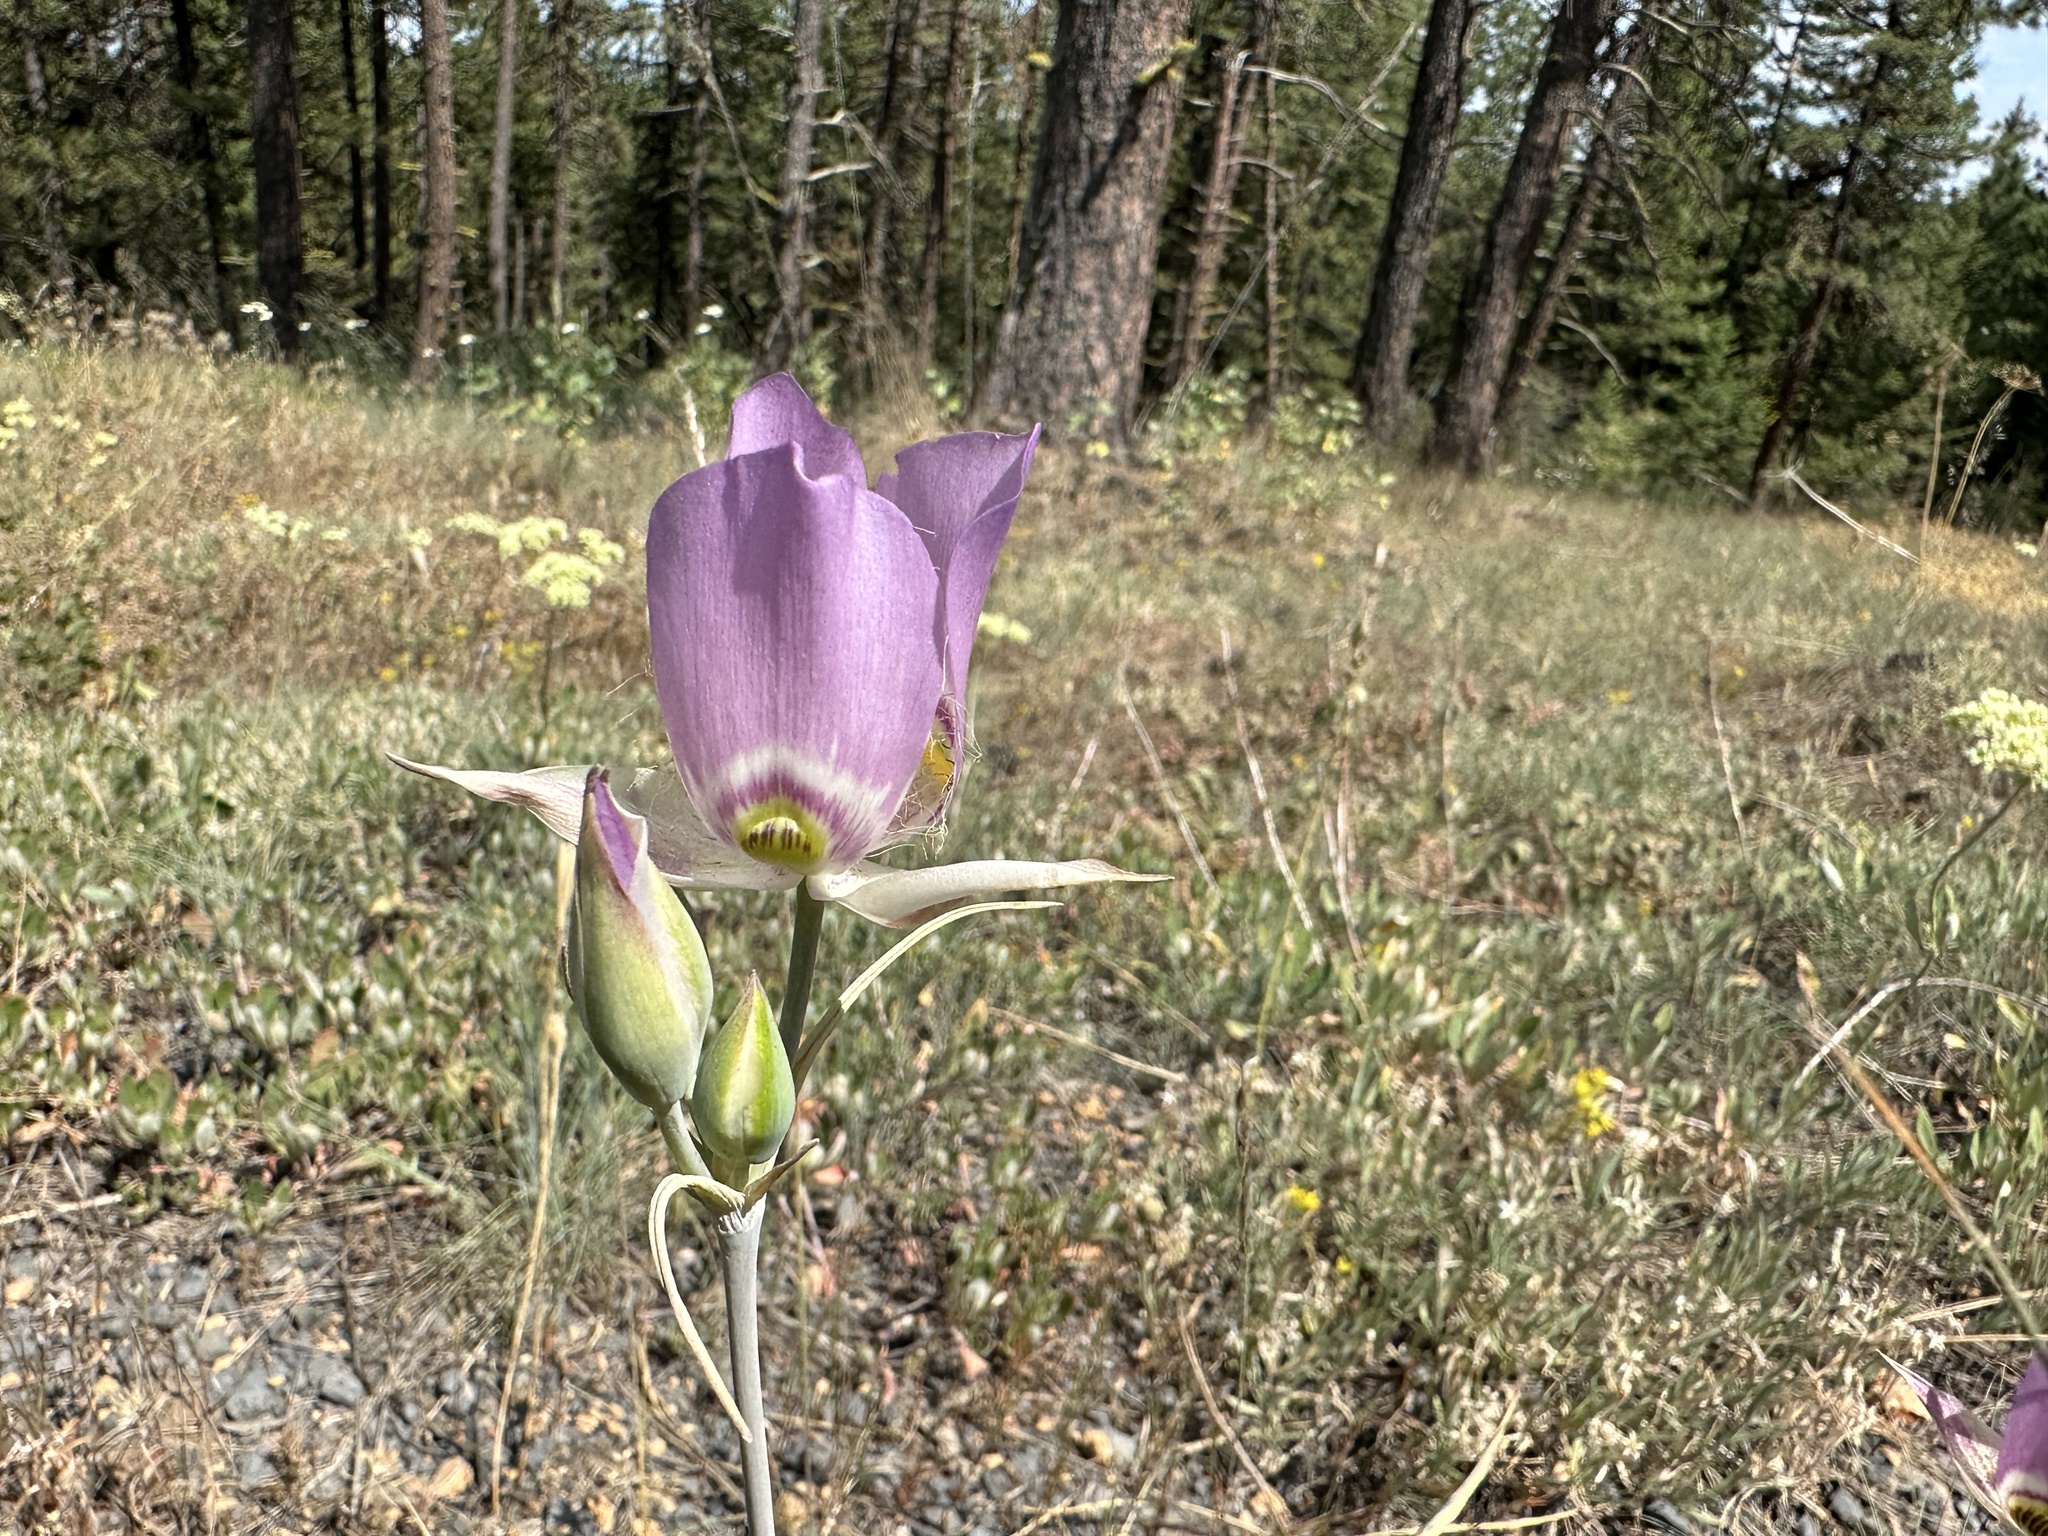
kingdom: Plantae
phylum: Tracheophyta
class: Liliopsida
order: Liliales
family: Liliaceae
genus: Calochortus
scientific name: Calochortus nitidus
